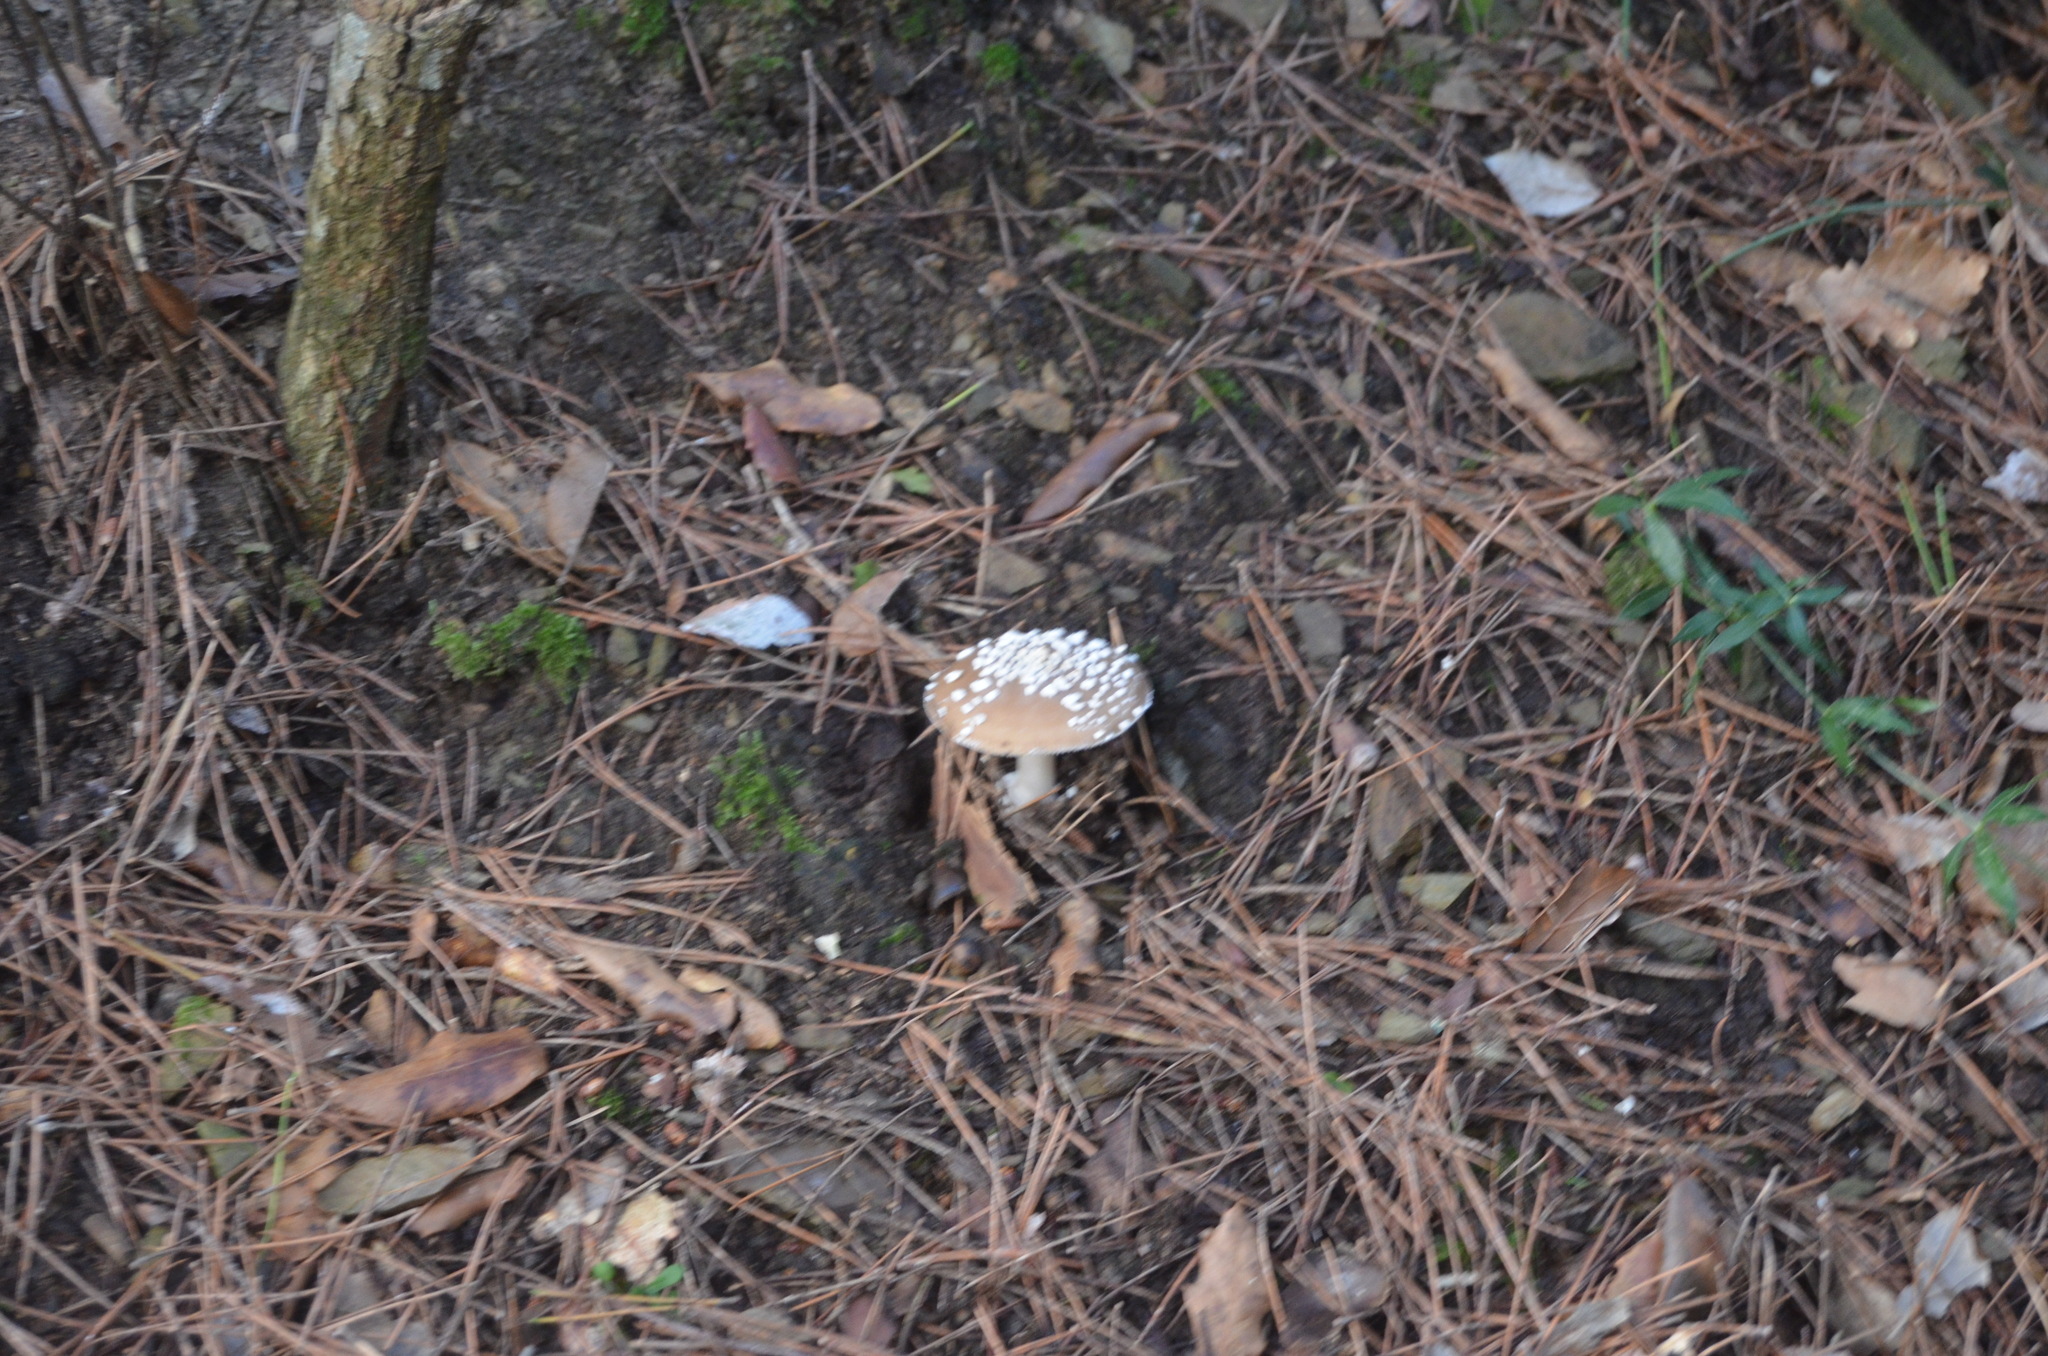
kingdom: Fungi
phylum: Basidiomycota
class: Agaricomycetes
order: Agaricales
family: Amanitaceae
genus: Amanita
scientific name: Amanita pantherina
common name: Panthercap
